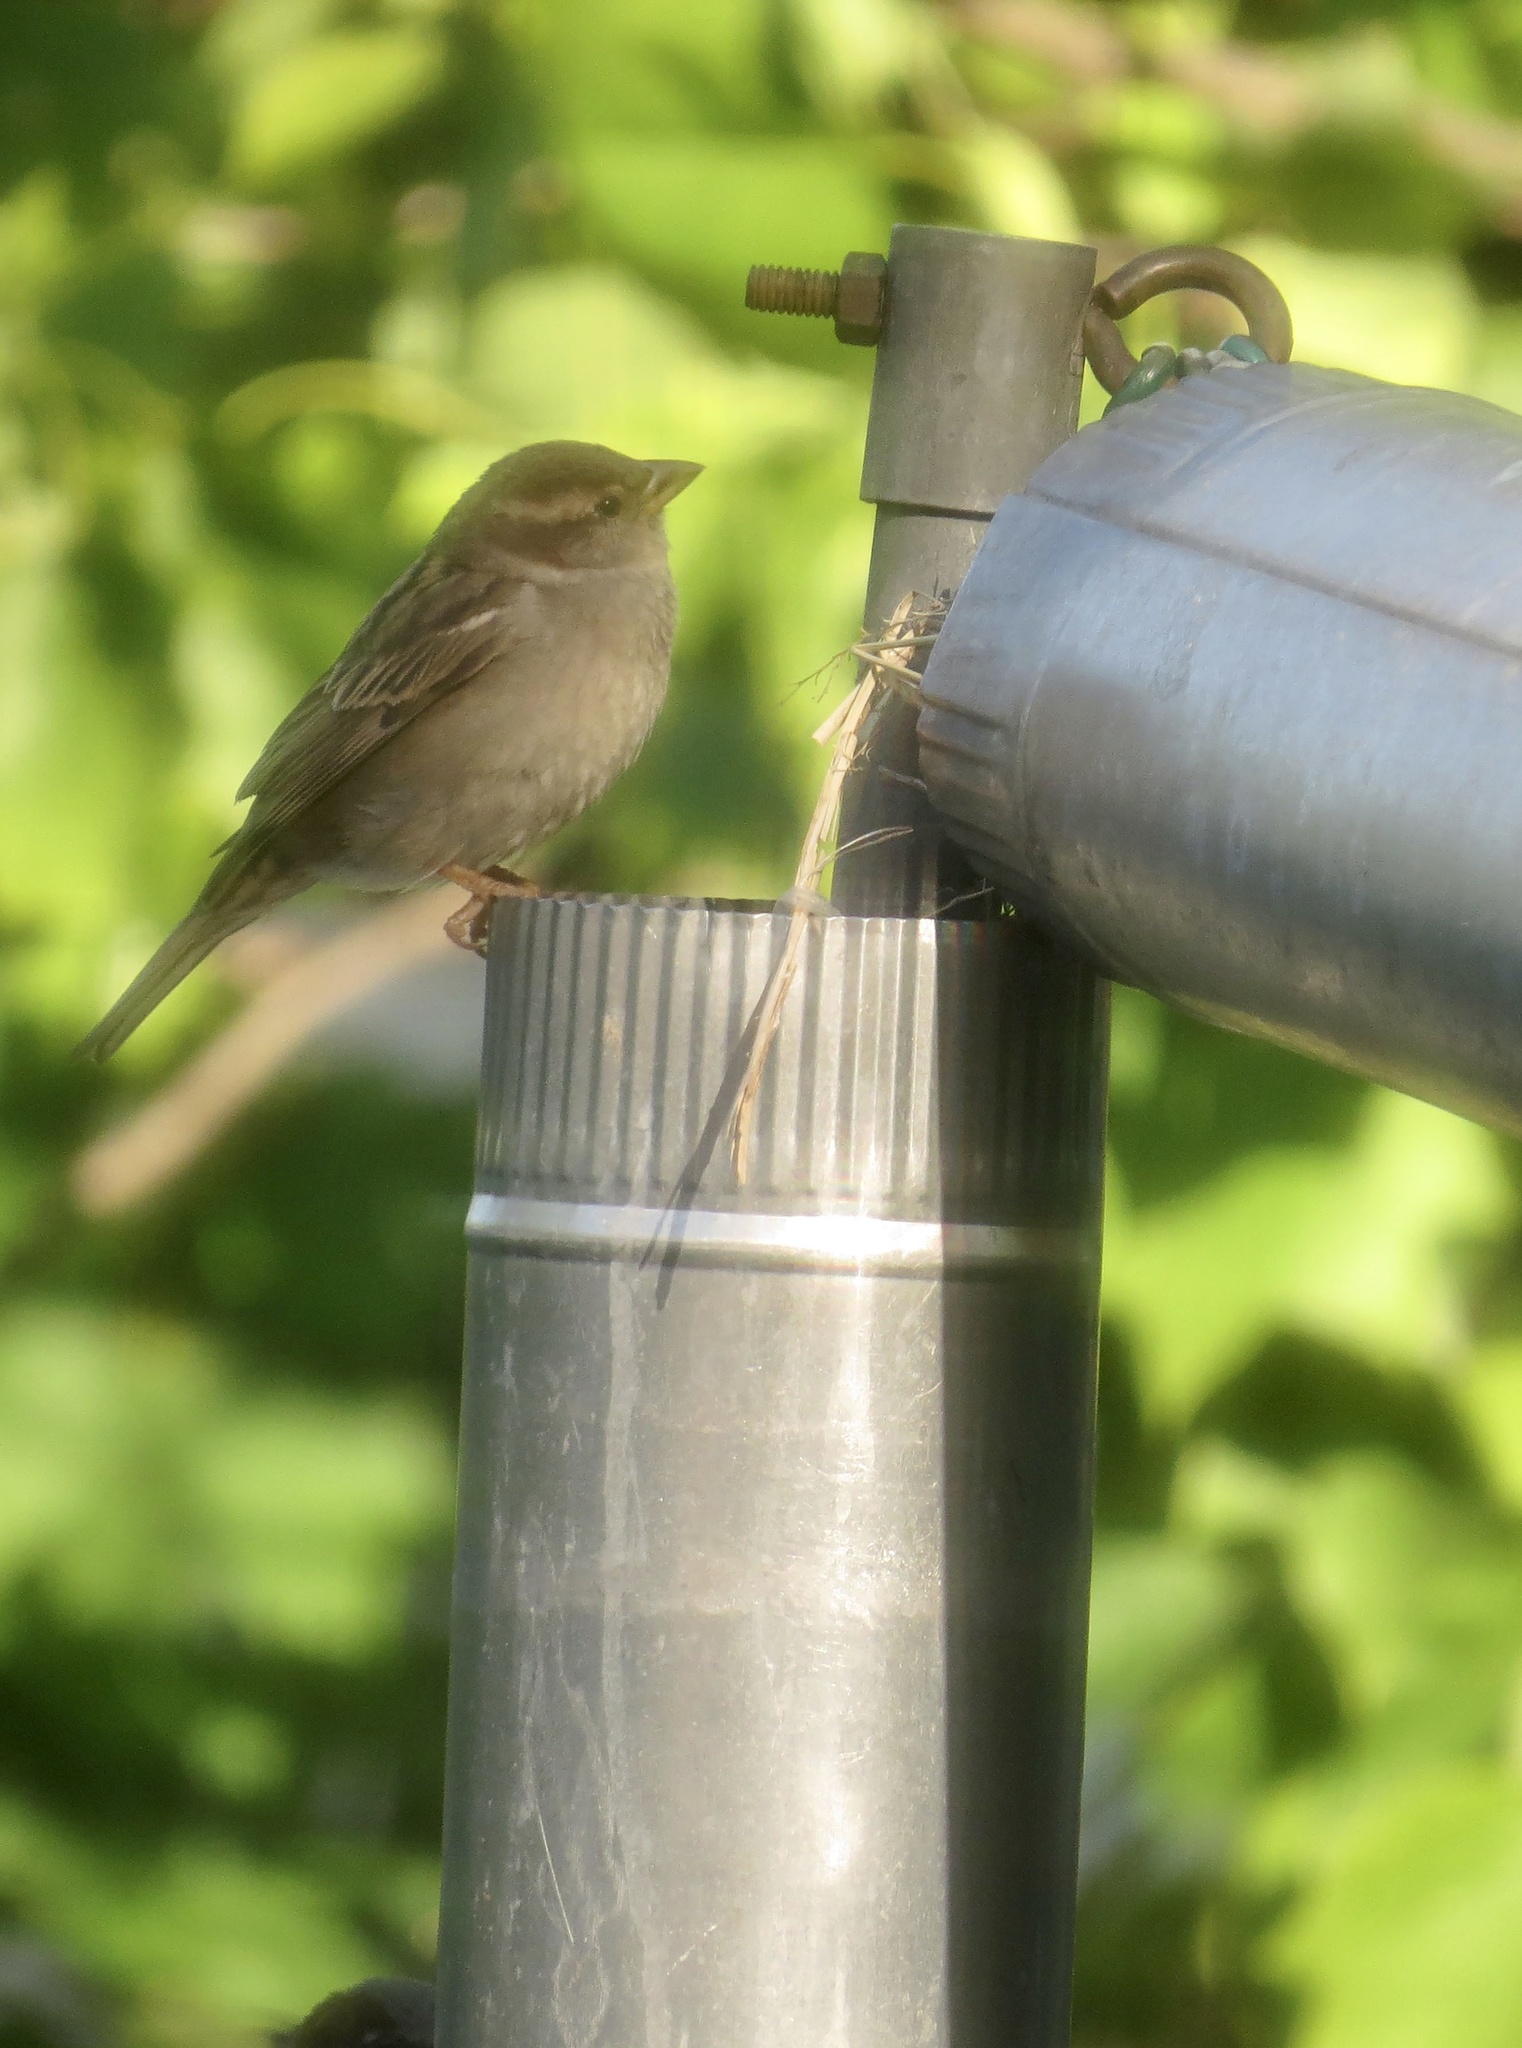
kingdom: Animalia
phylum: Chordata
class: Aves
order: Passeriformes
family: Passeridae
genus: Passer
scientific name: Passer domesticus
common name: House sparrow
